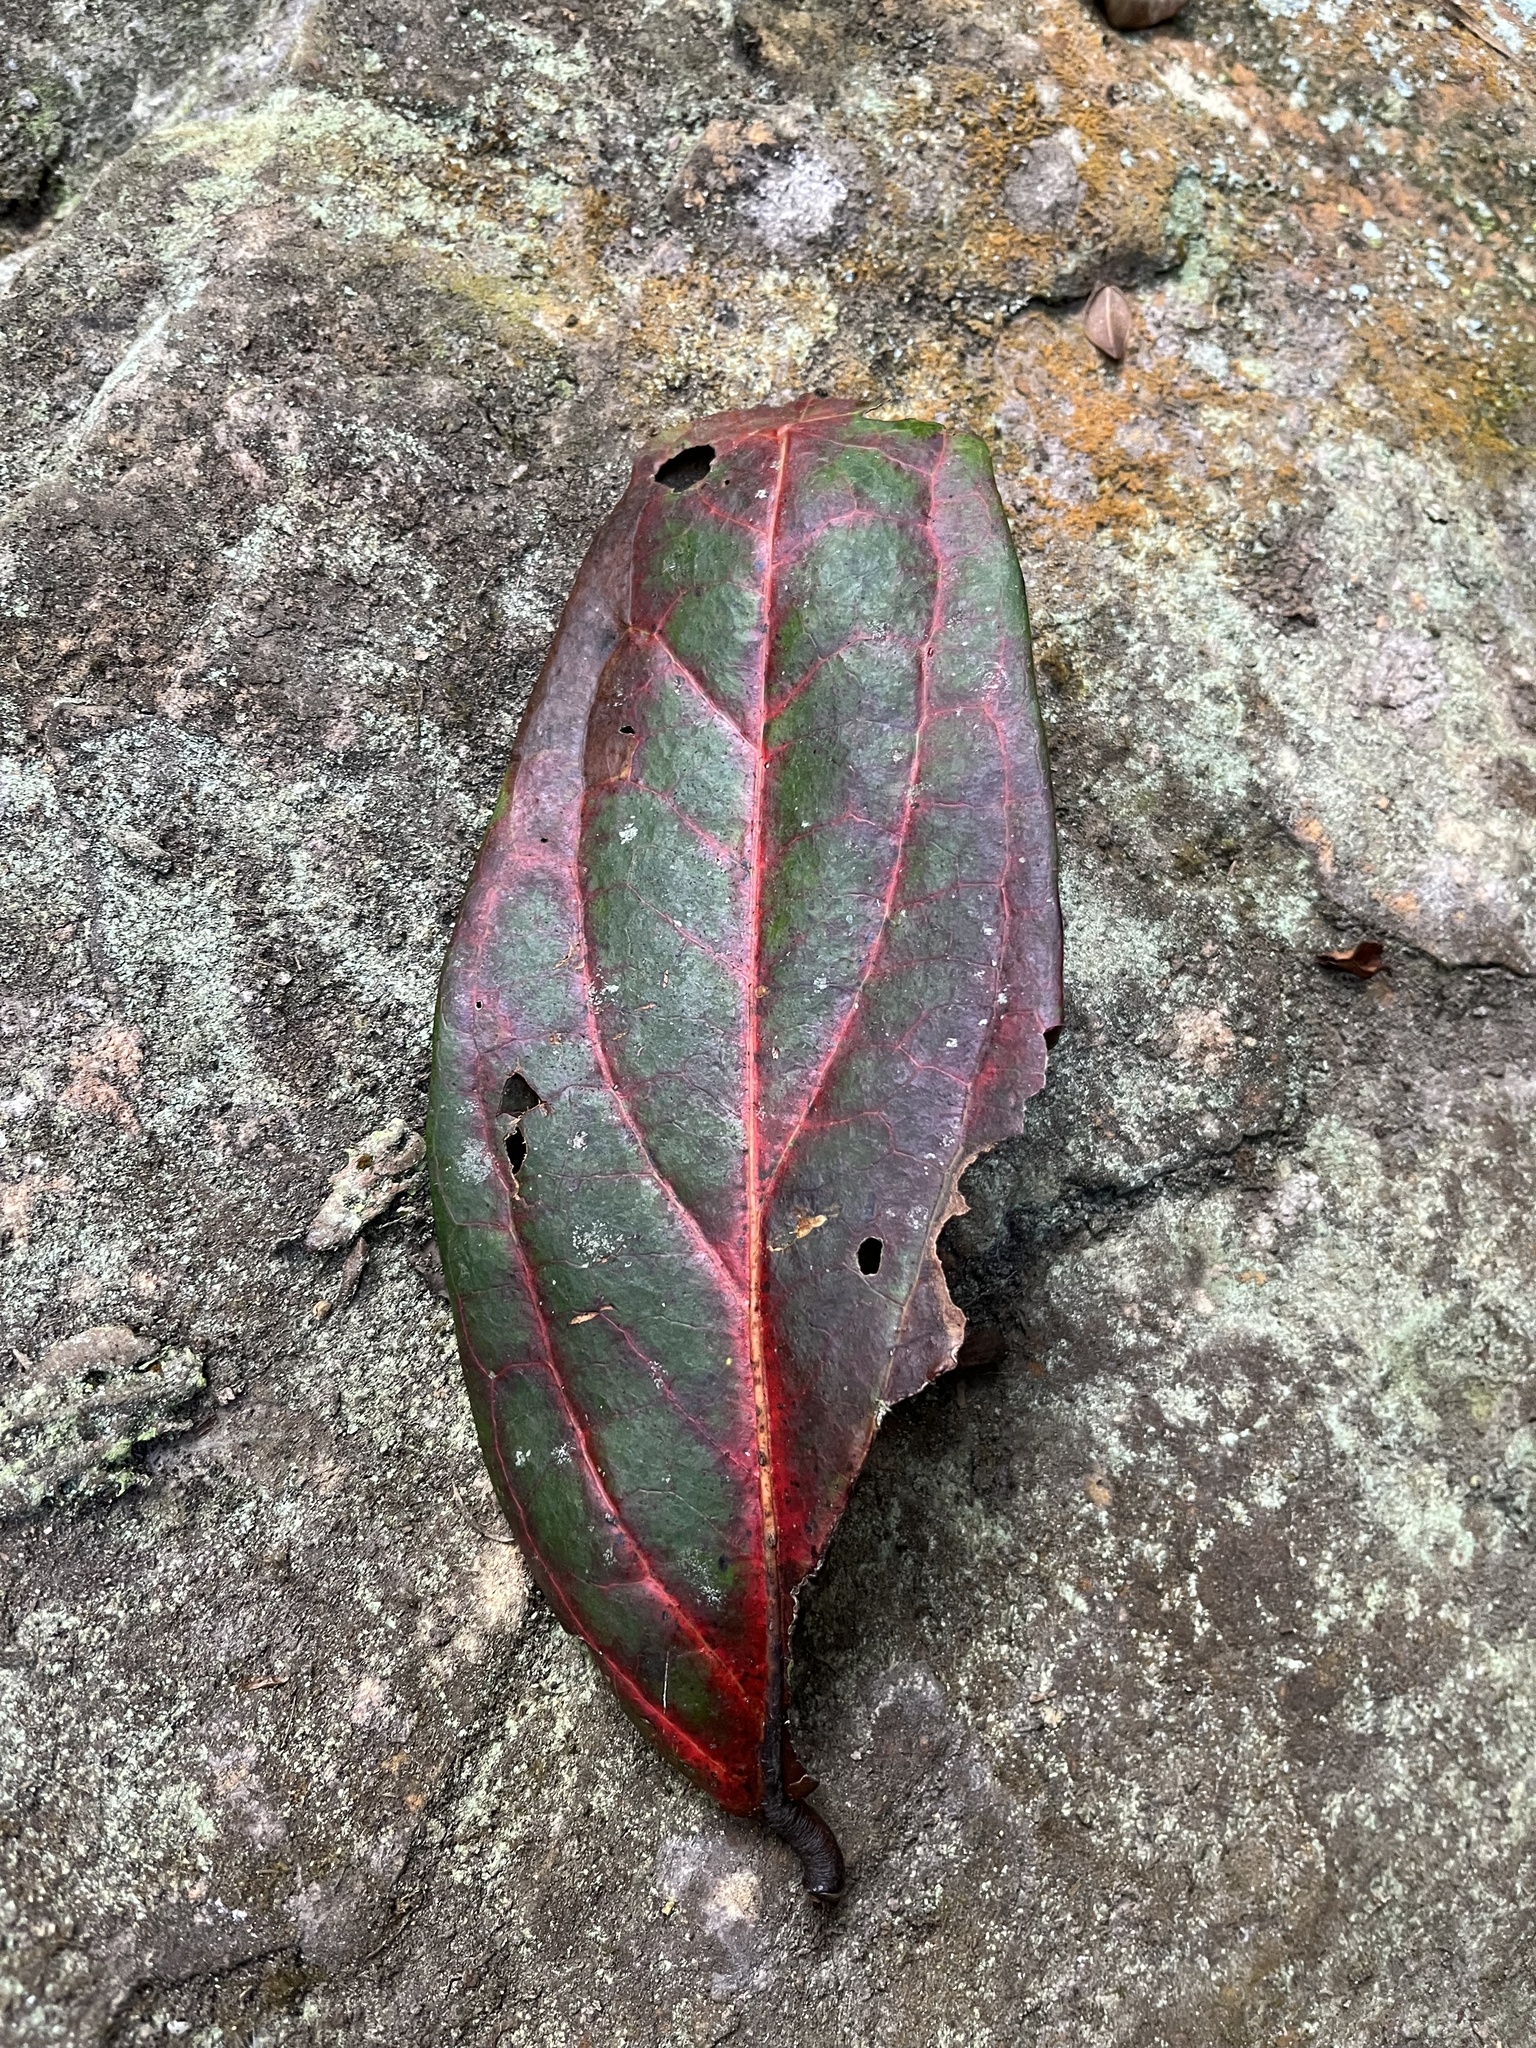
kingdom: Plantae
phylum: Tracheophyta
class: Magnoliopsida
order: Ericales
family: Ericaceae
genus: Macleania
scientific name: Macleania rupestris
